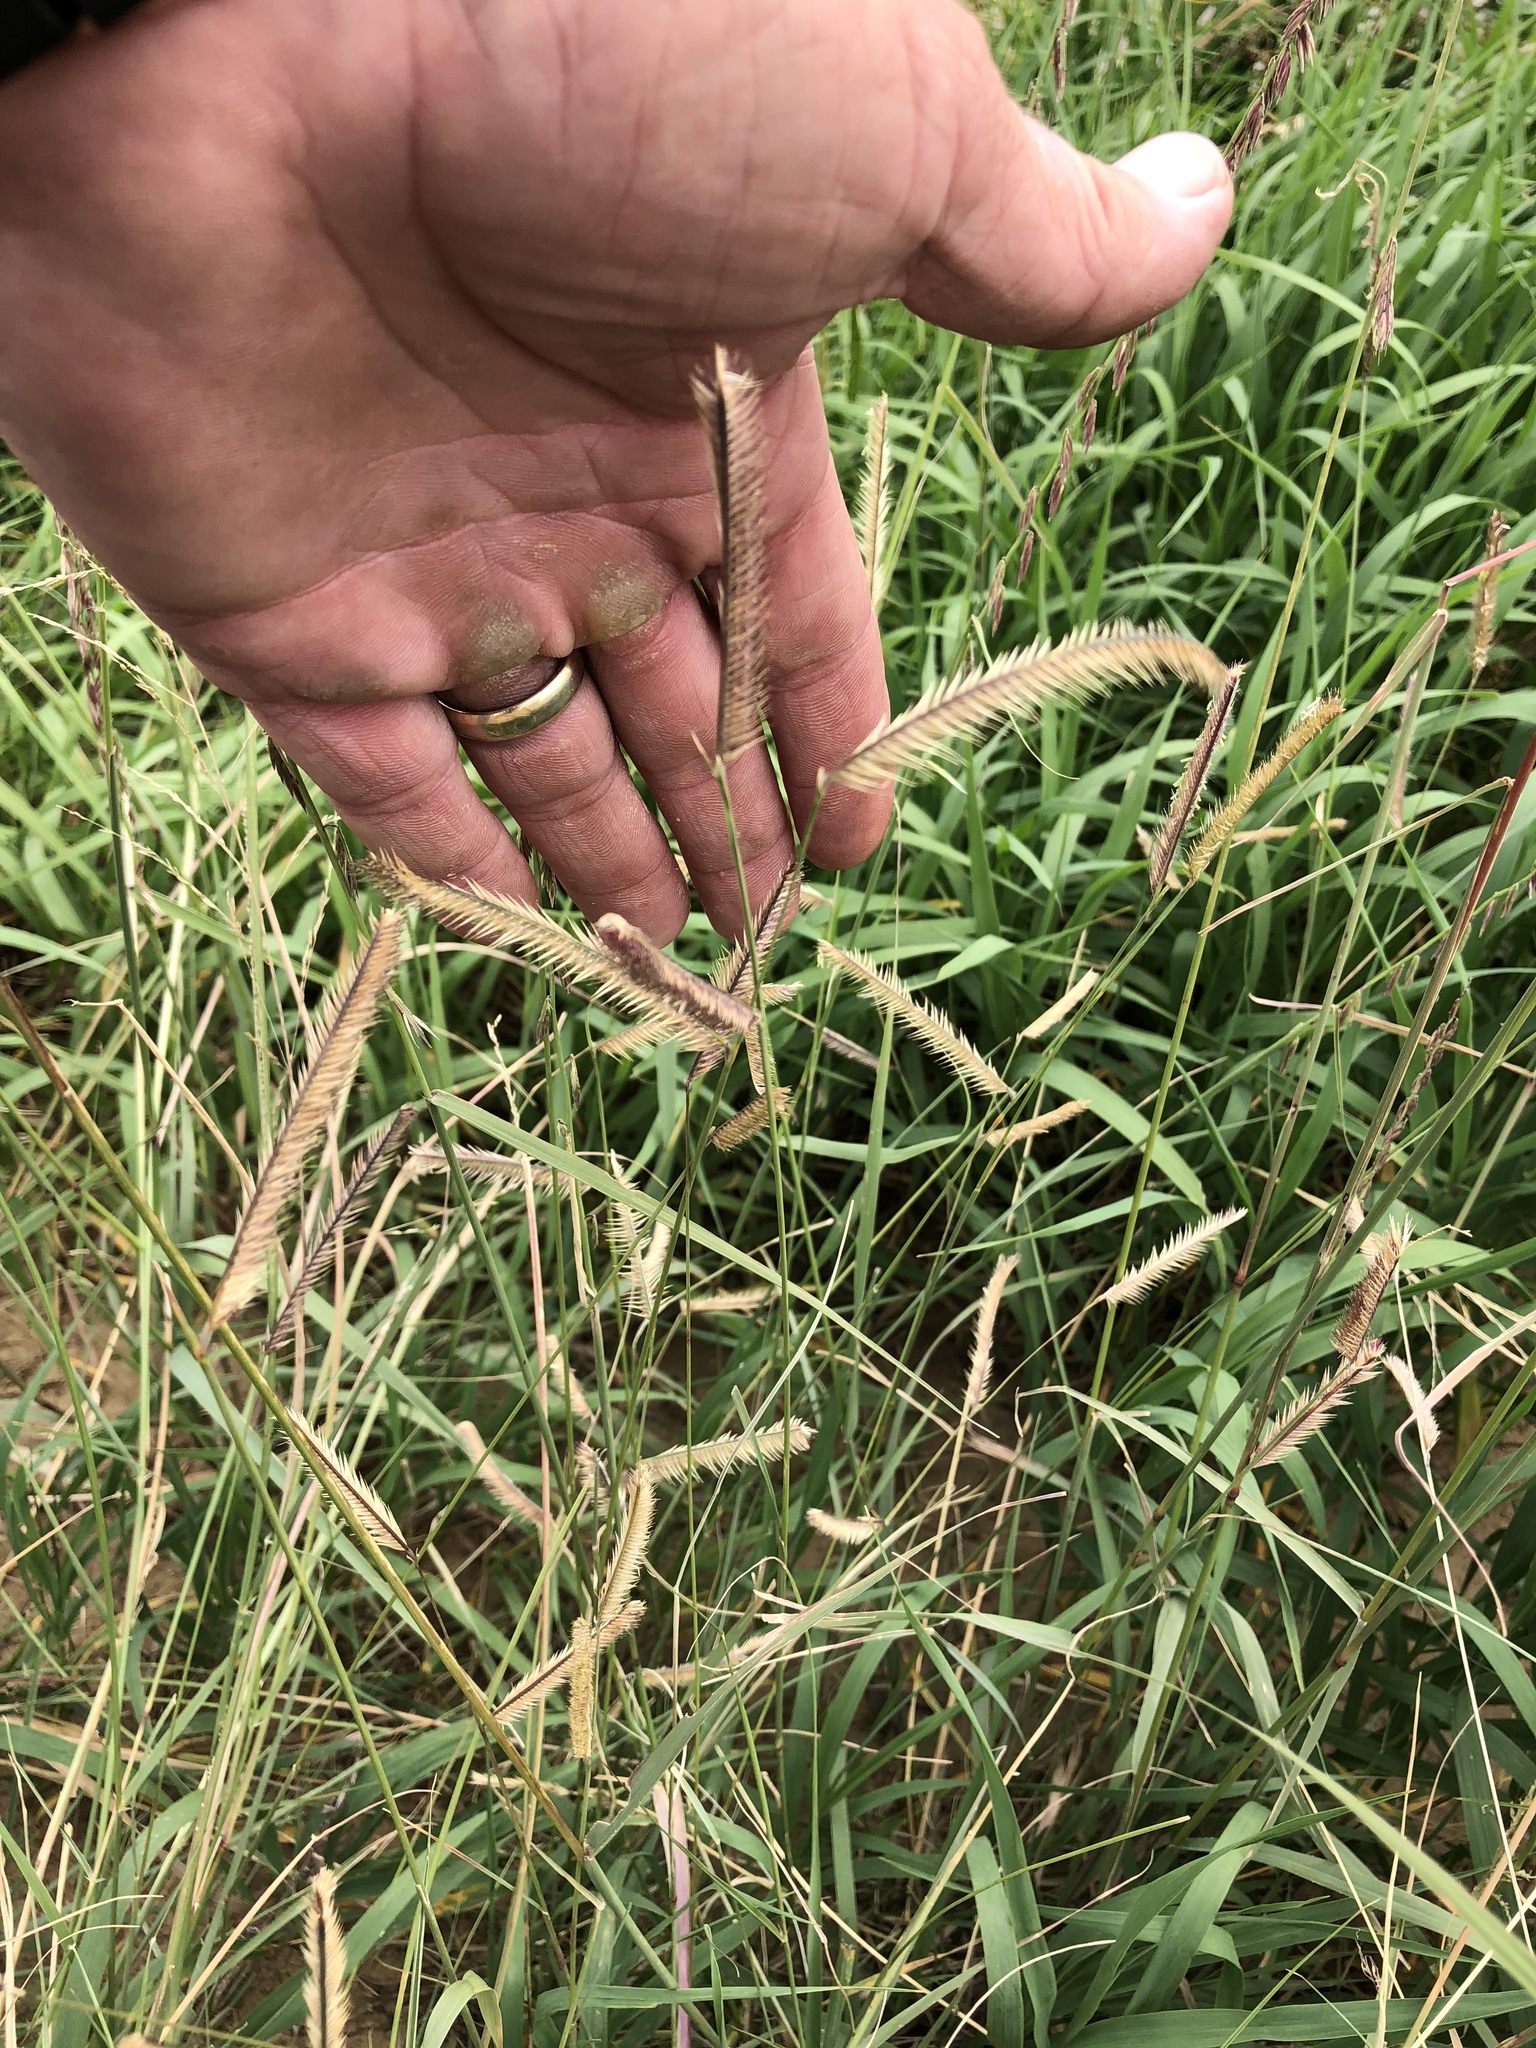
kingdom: Plantae
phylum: Tracheophyta
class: Liliopsida
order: Poales
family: Poaceae
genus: Bouteloua
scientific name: Bouteloua gracilis
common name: Blue grama
